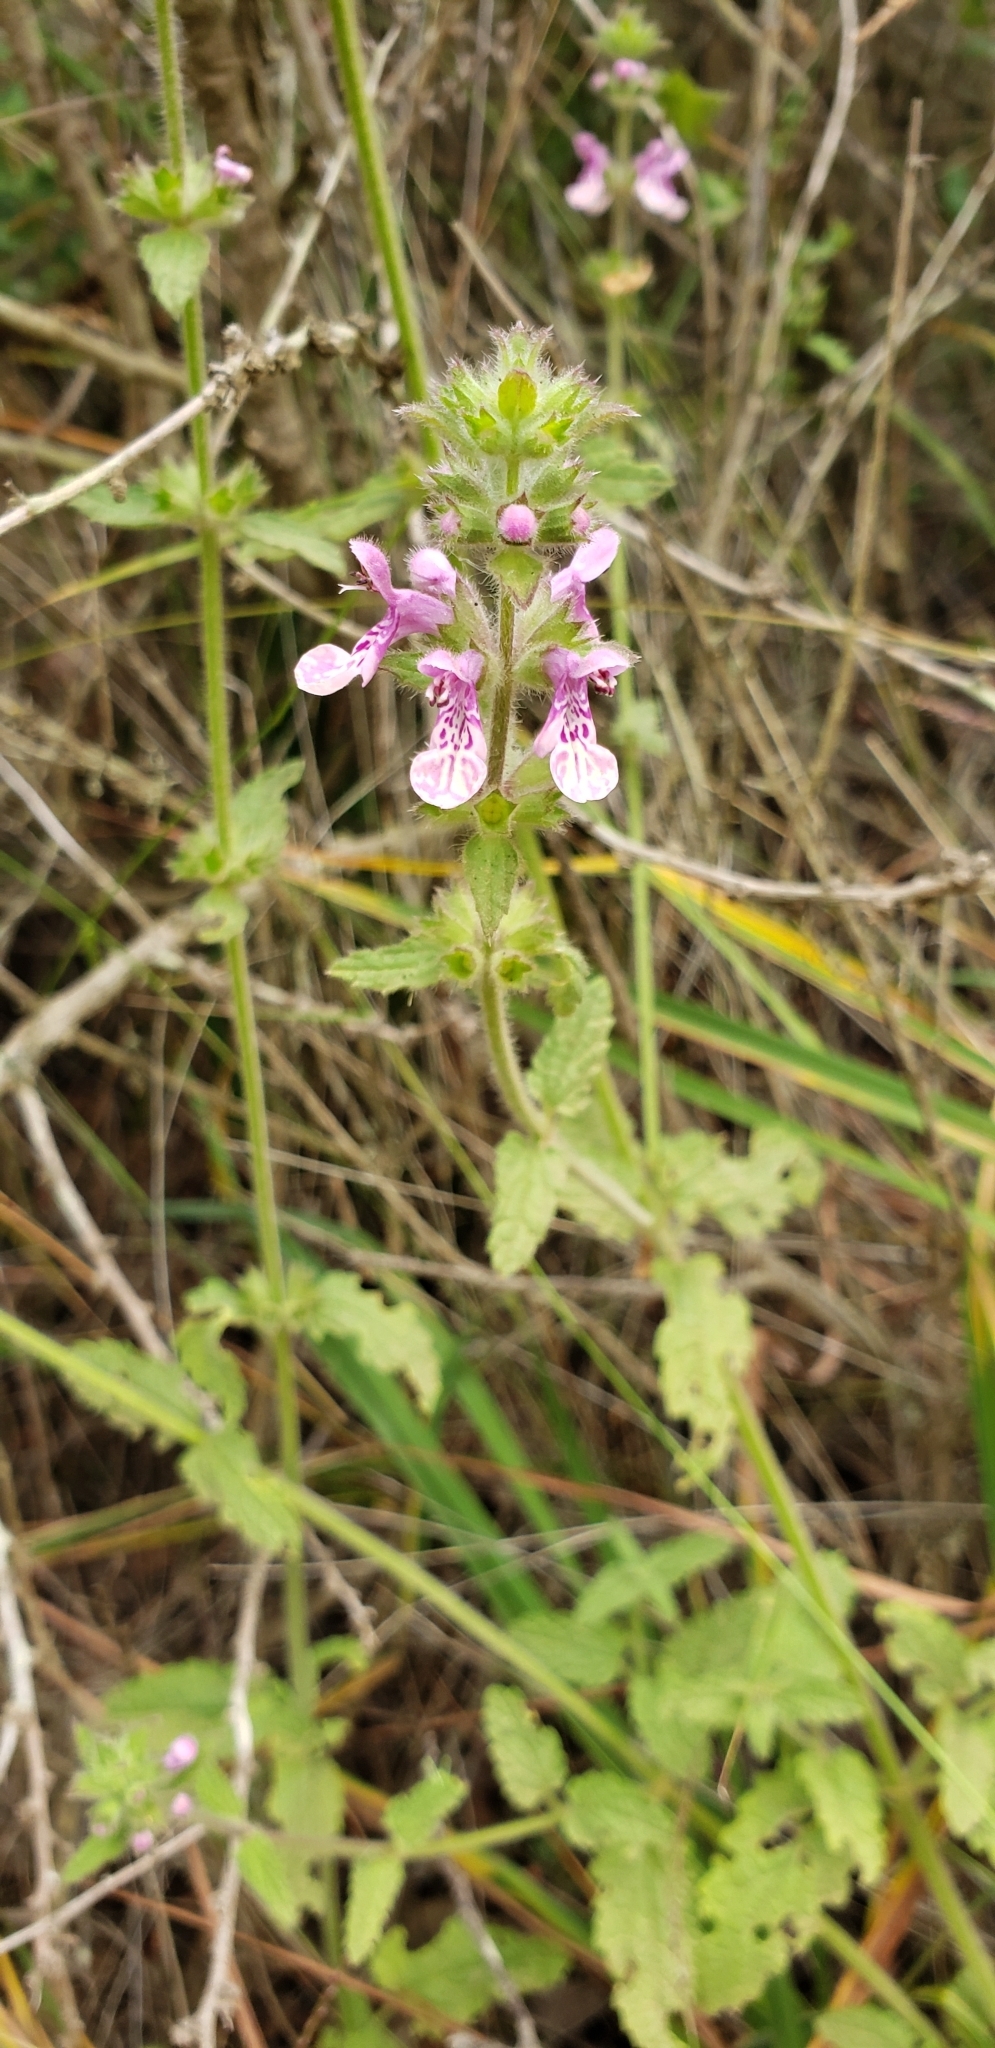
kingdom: Plantae
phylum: Tracheophyta
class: Magnoliopsida
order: Lamiales
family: Lamiaceae
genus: Stachys
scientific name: Stachys grandidentata
